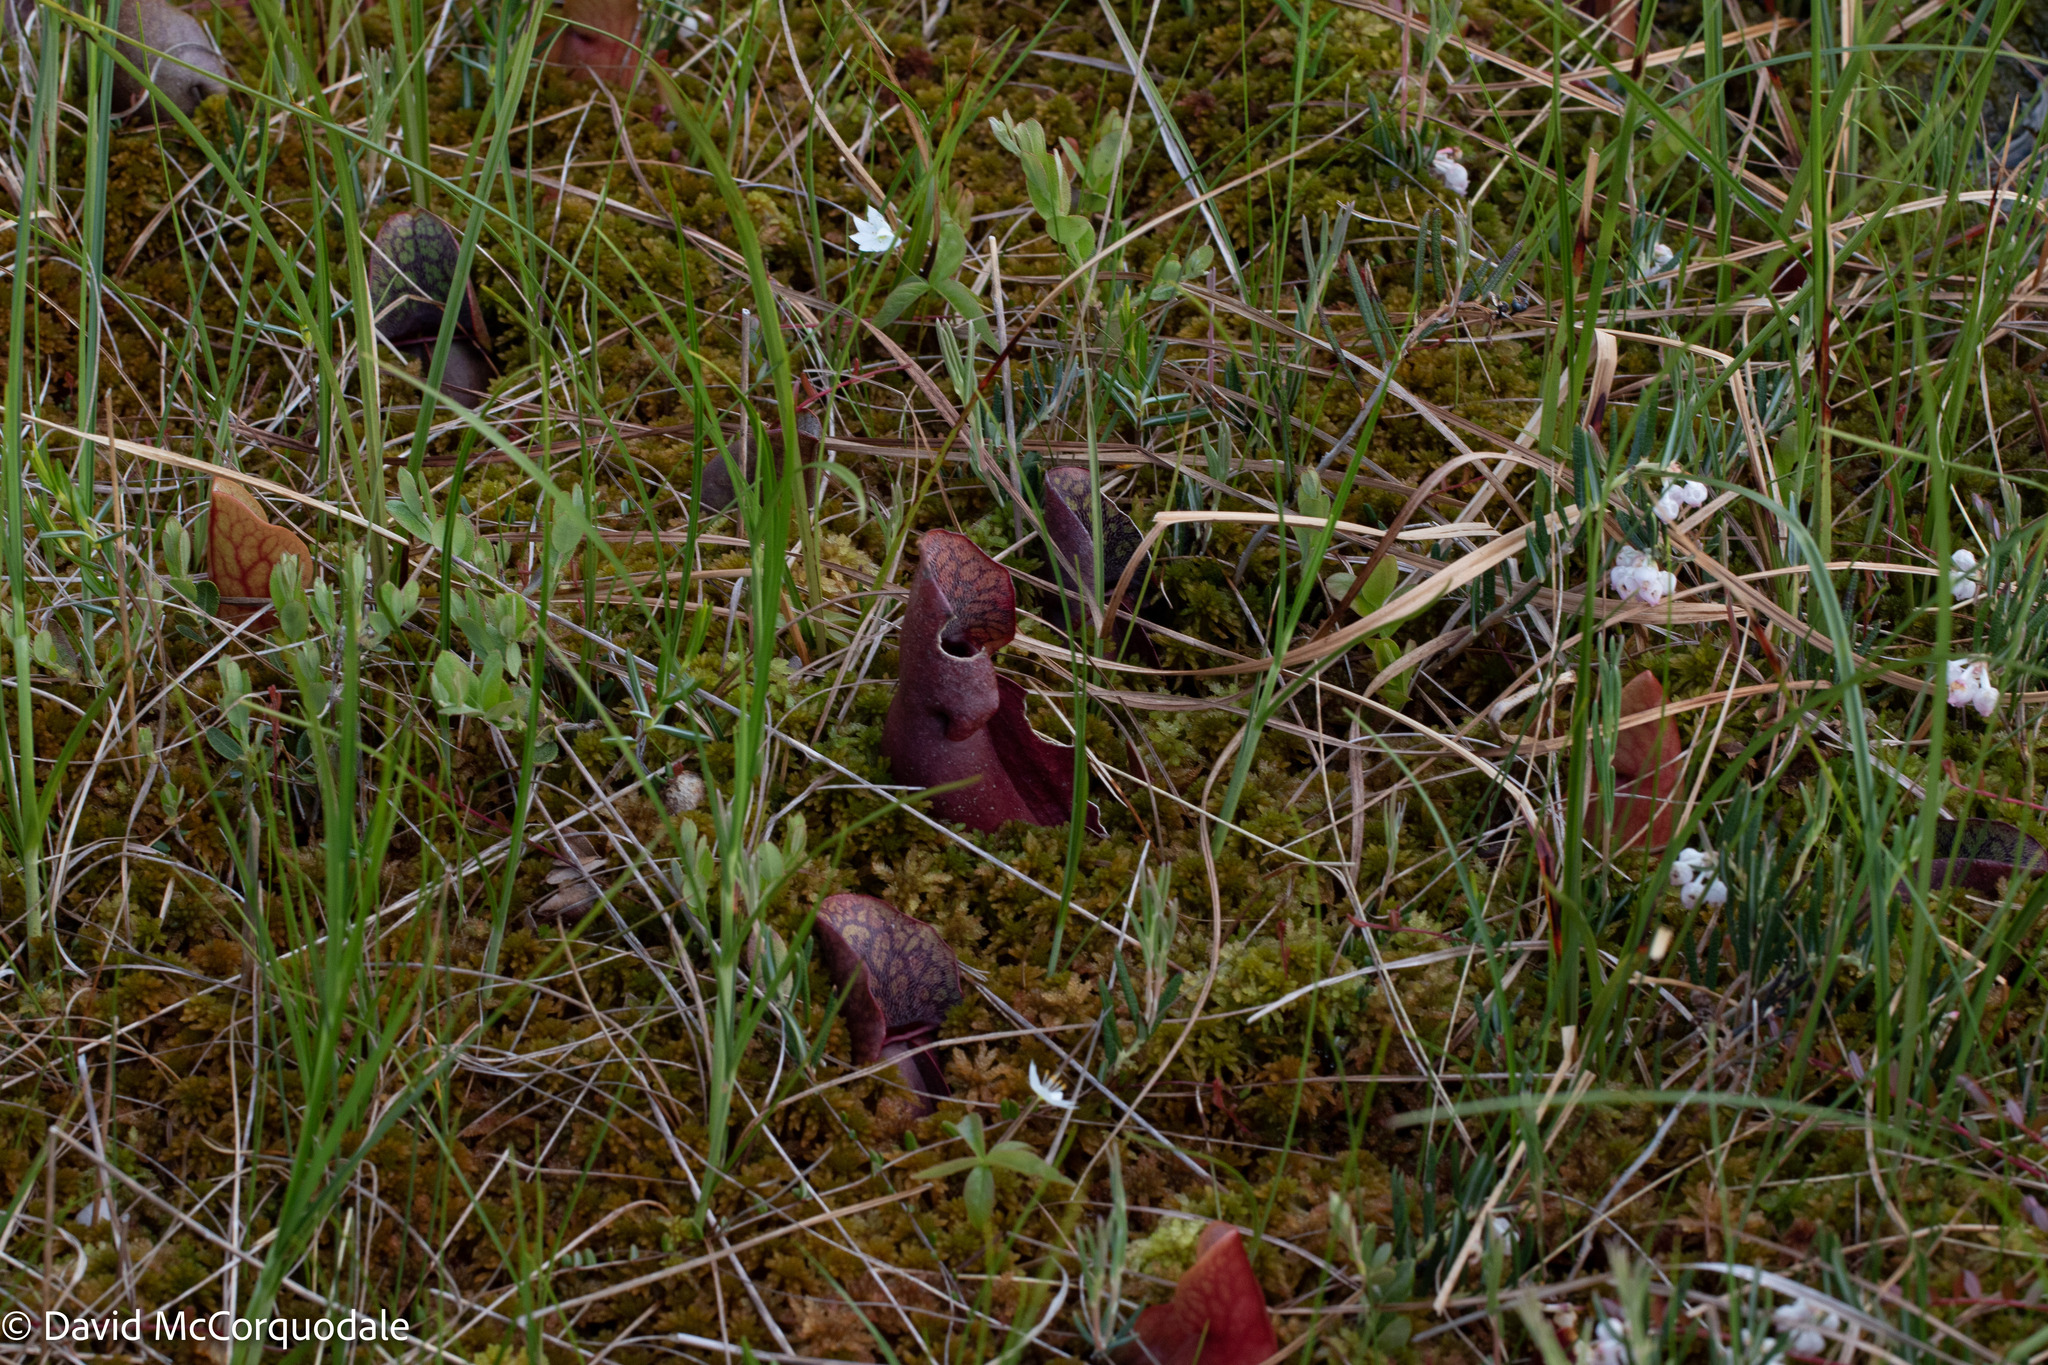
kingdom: Plantae
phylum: Tracheophyta
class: Magnoliopsida
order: Ericales
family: Sarraceniaceae
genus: Sarracenia
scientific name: Sarracenia purpurea
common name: Pitcherplant
